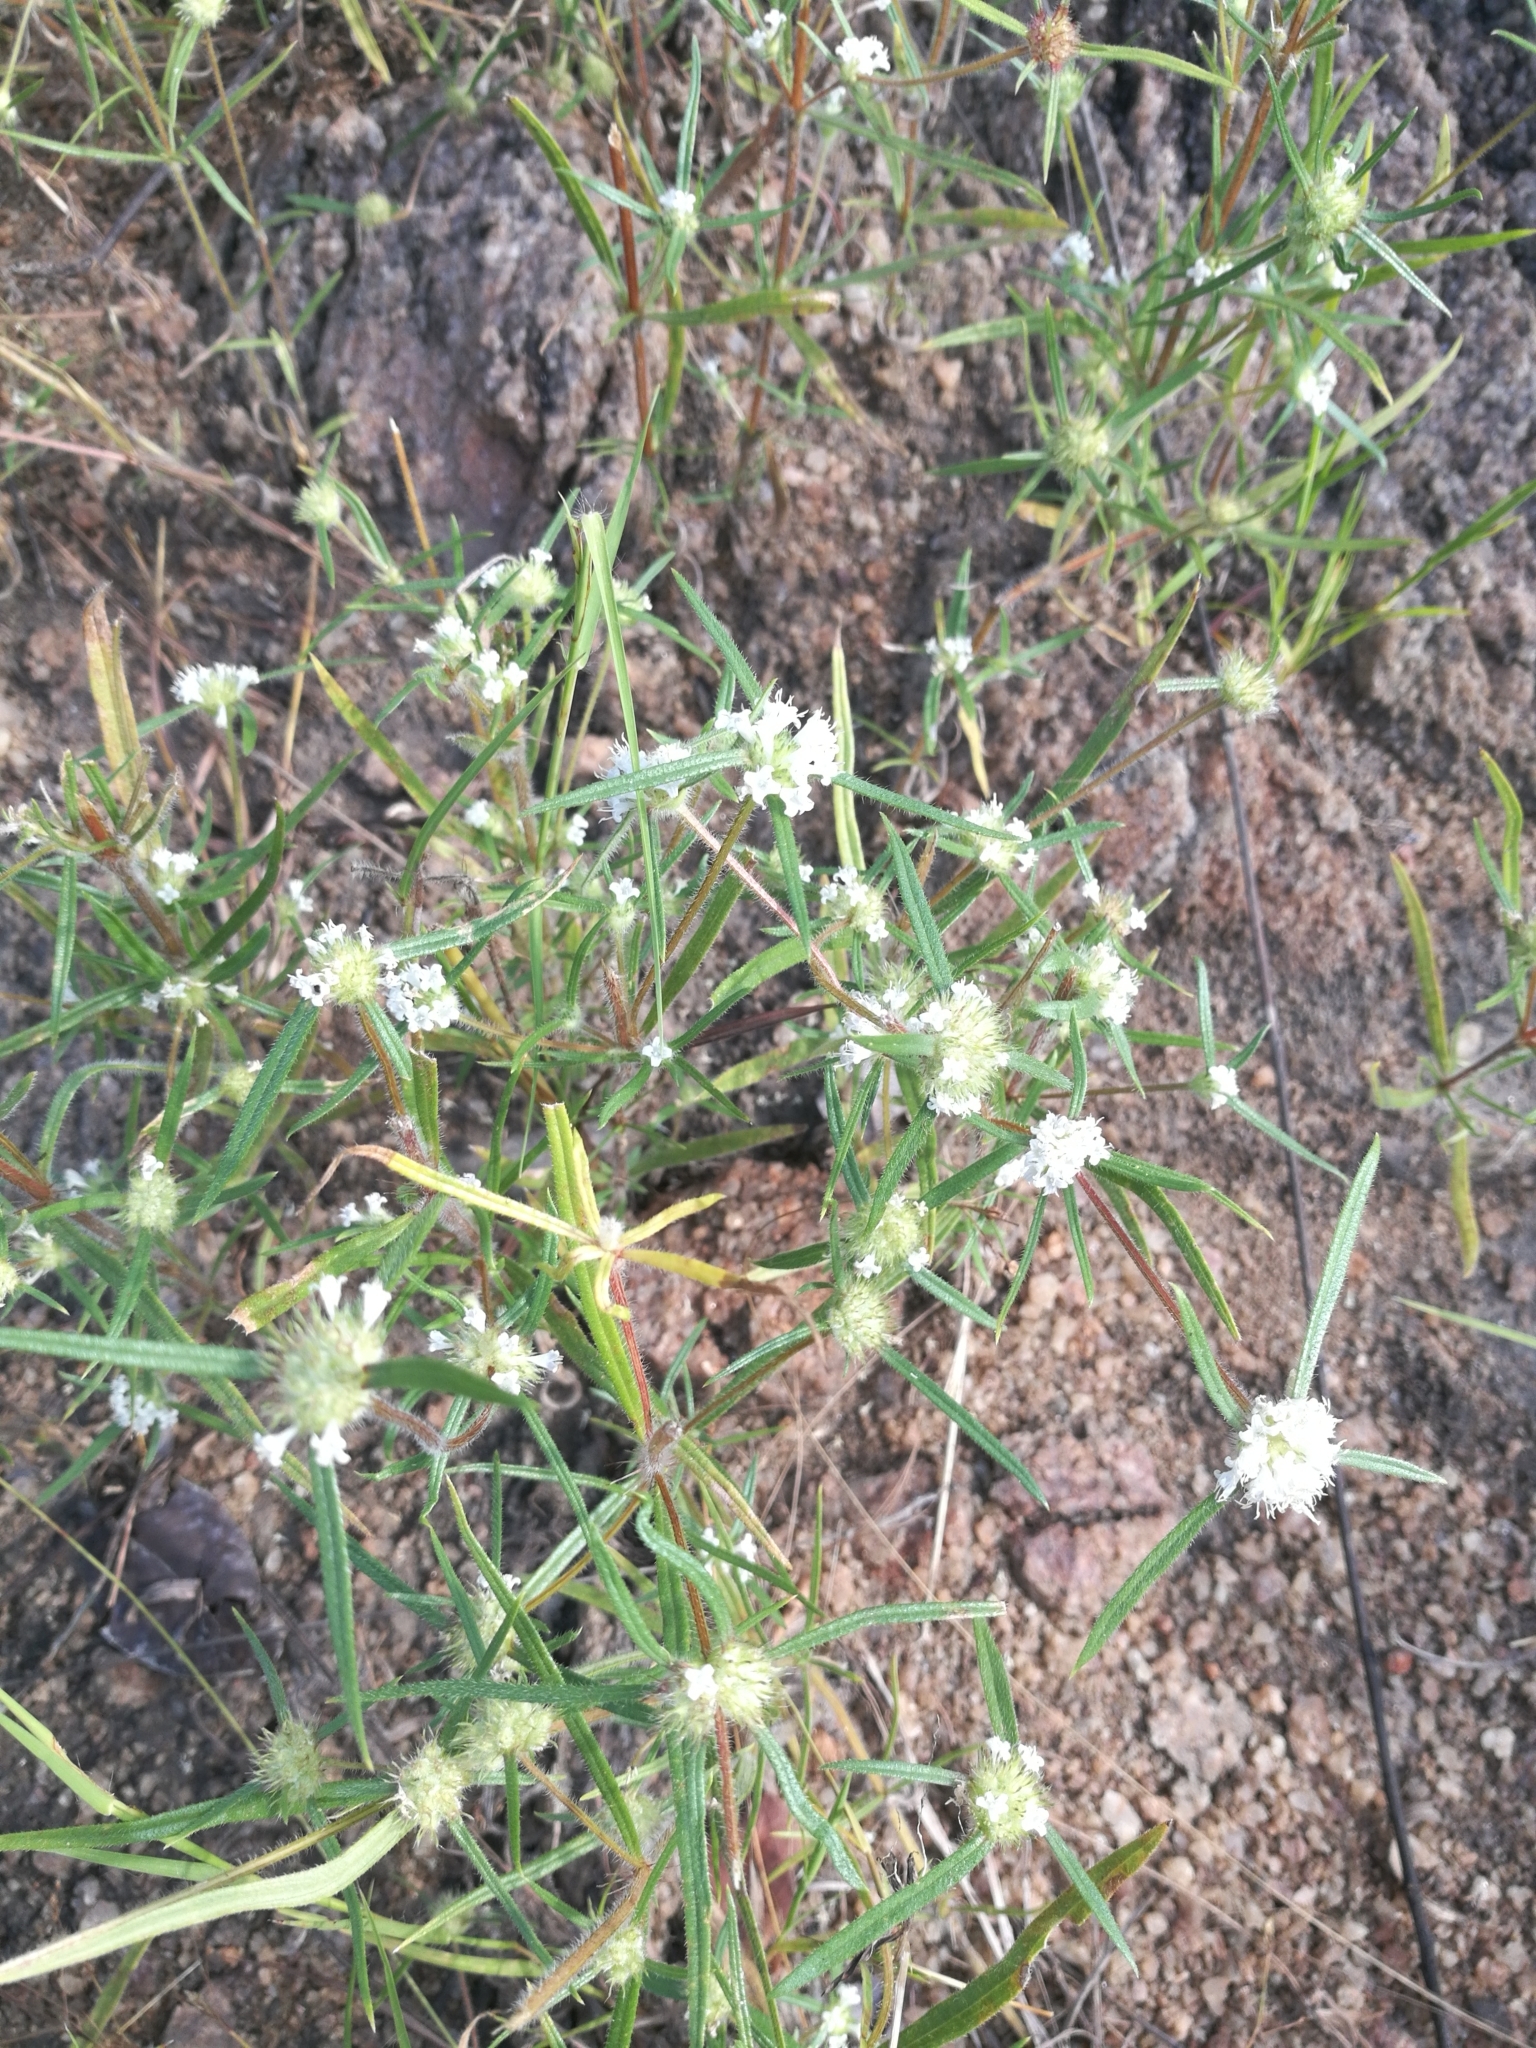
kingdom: Plantae
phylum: Tracheophyta
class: Magnoliopsida
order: Gentianales
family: Rubiaceae
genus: Spermacoce
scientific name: Spermacoce octodon
